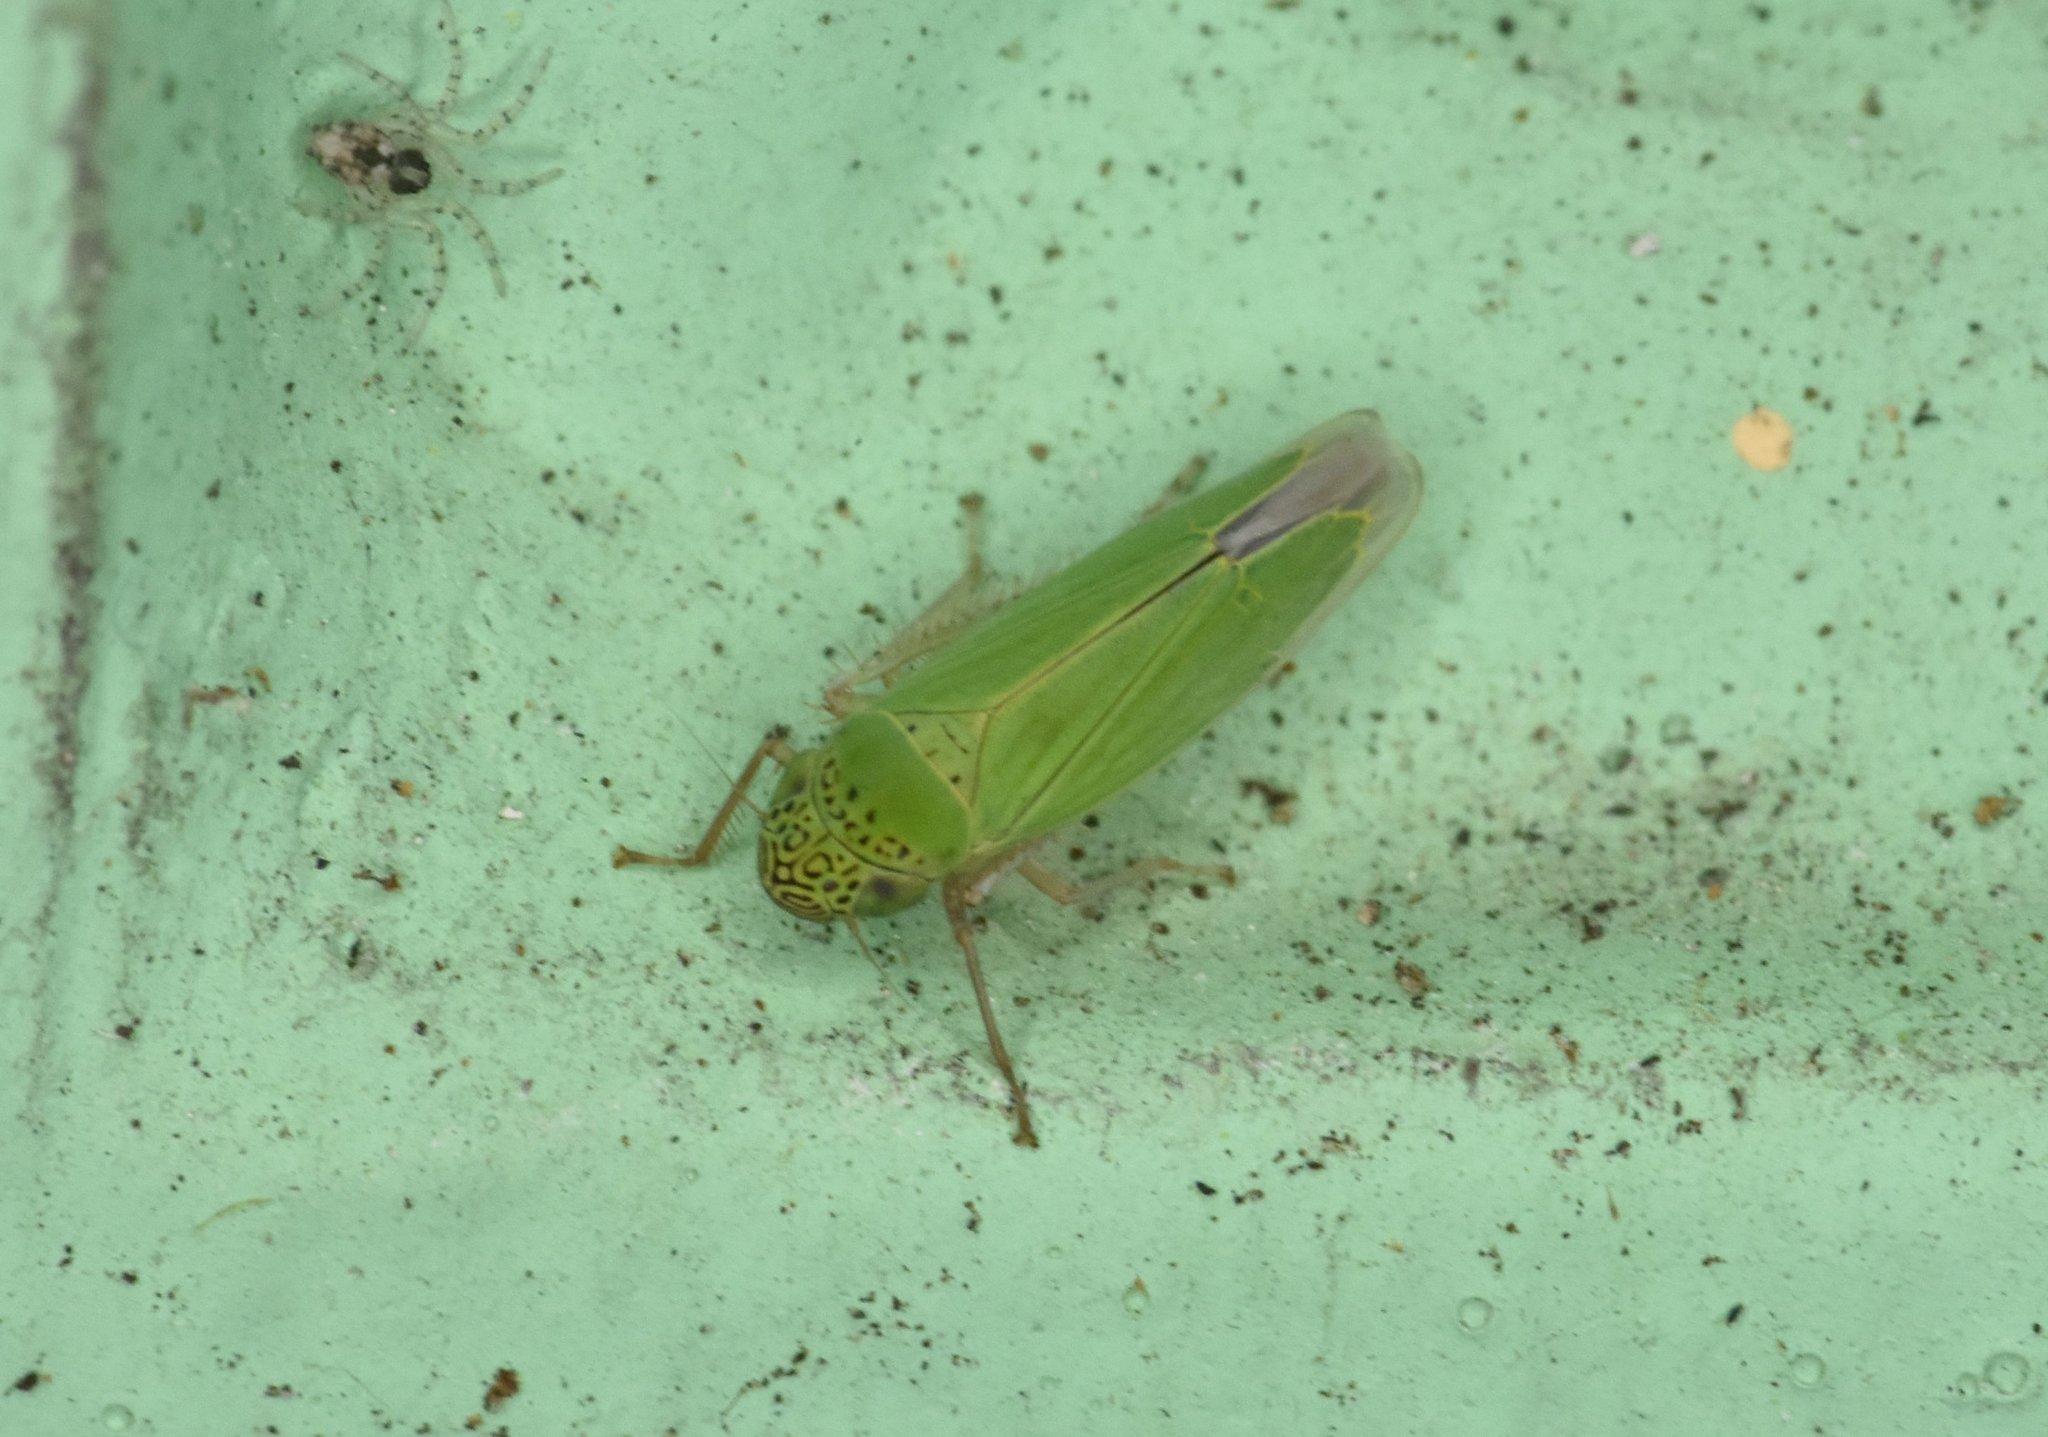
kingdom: Animalia
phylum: Arthropoda
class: Insecta
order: Hemiptera
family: Cicadellidae
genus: Hortensia
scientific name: Hortensia similis
